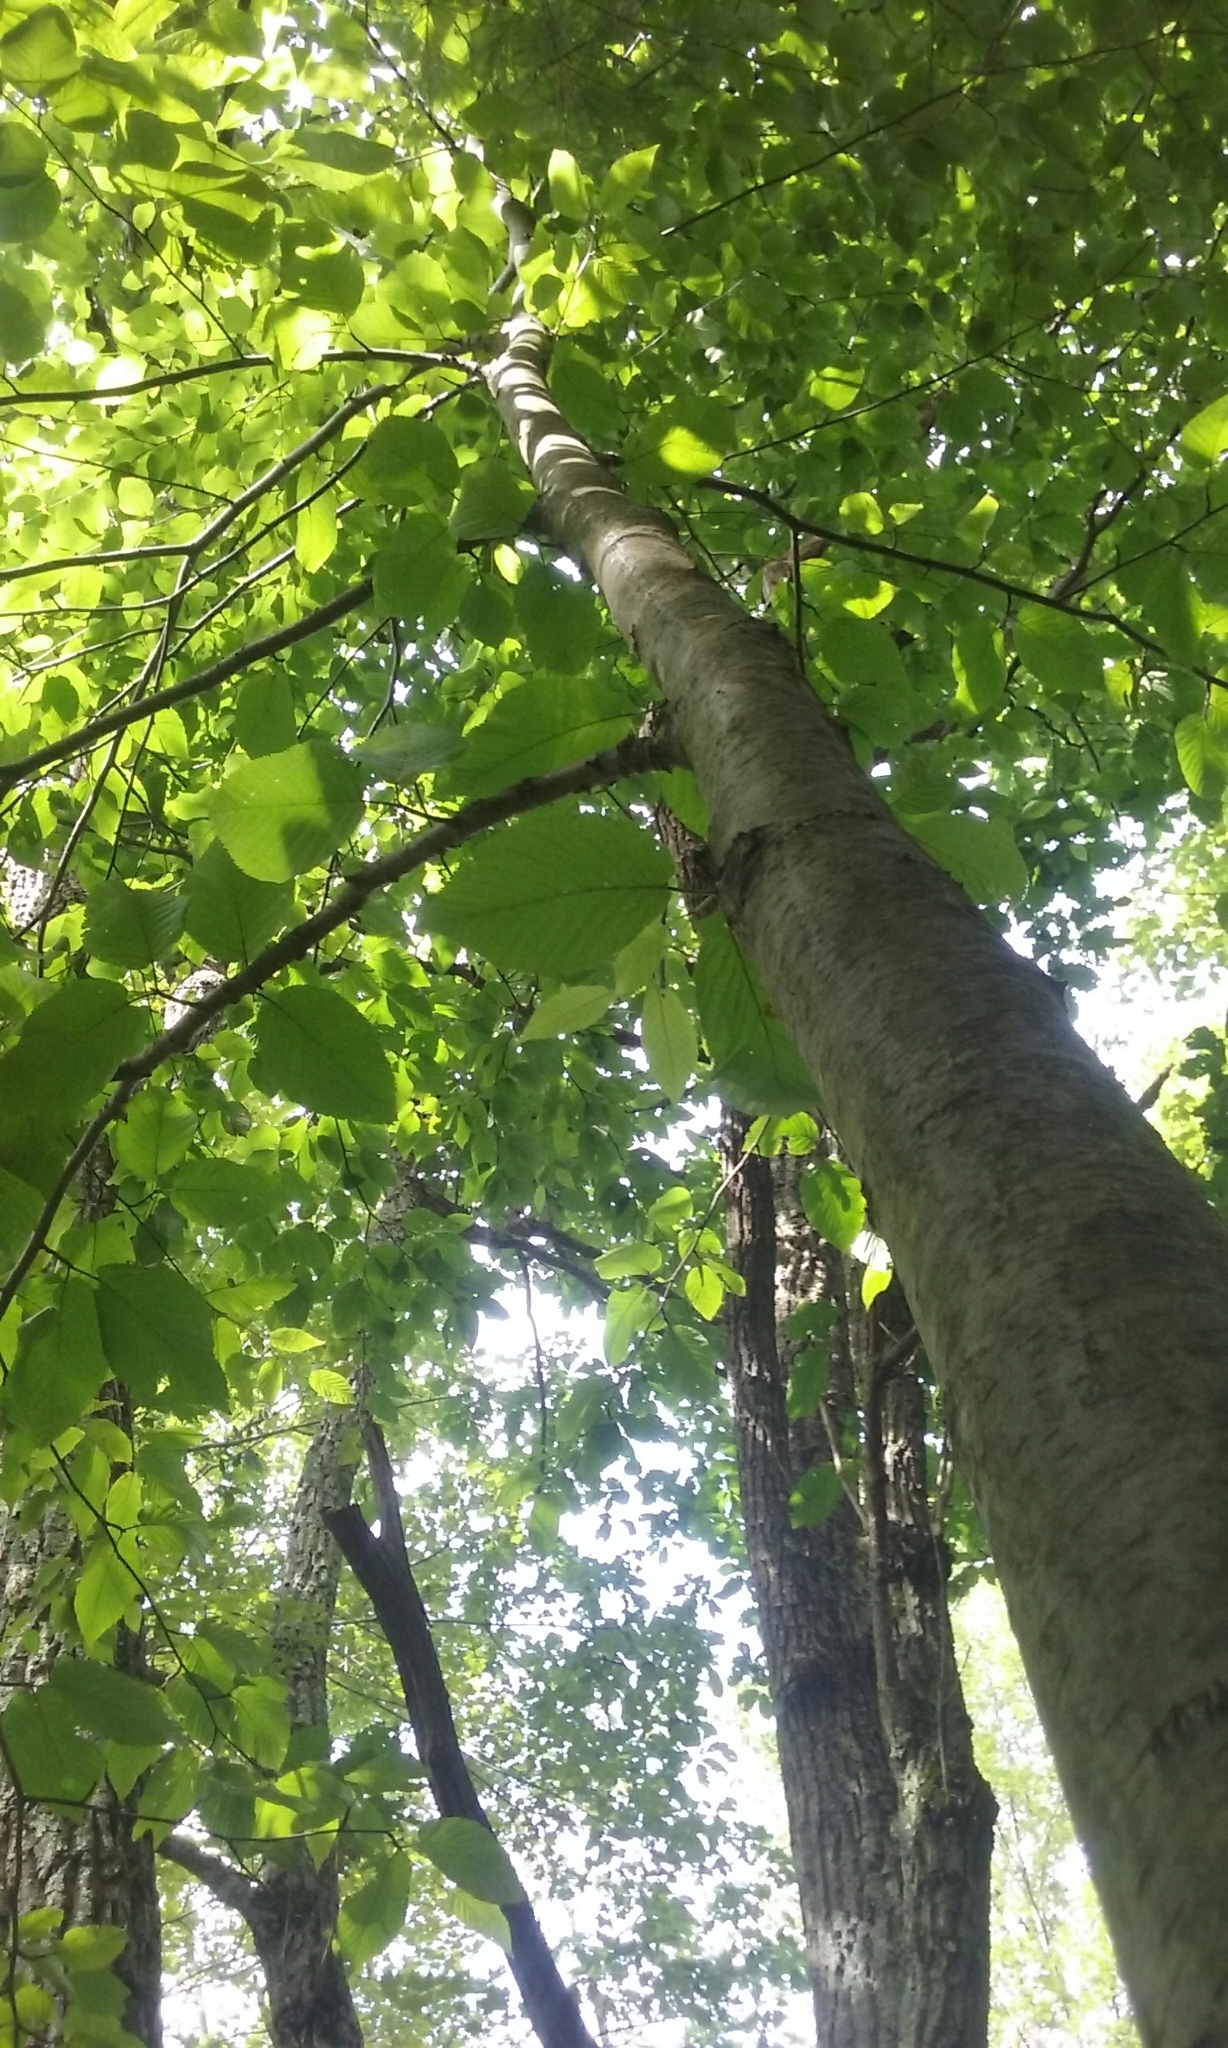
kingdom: Plantae
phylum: Tracheophyta
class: Magnoliopsida
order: Fagales
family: Betulaceae
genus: Betula
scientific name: Betula lenta
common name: Black birch
